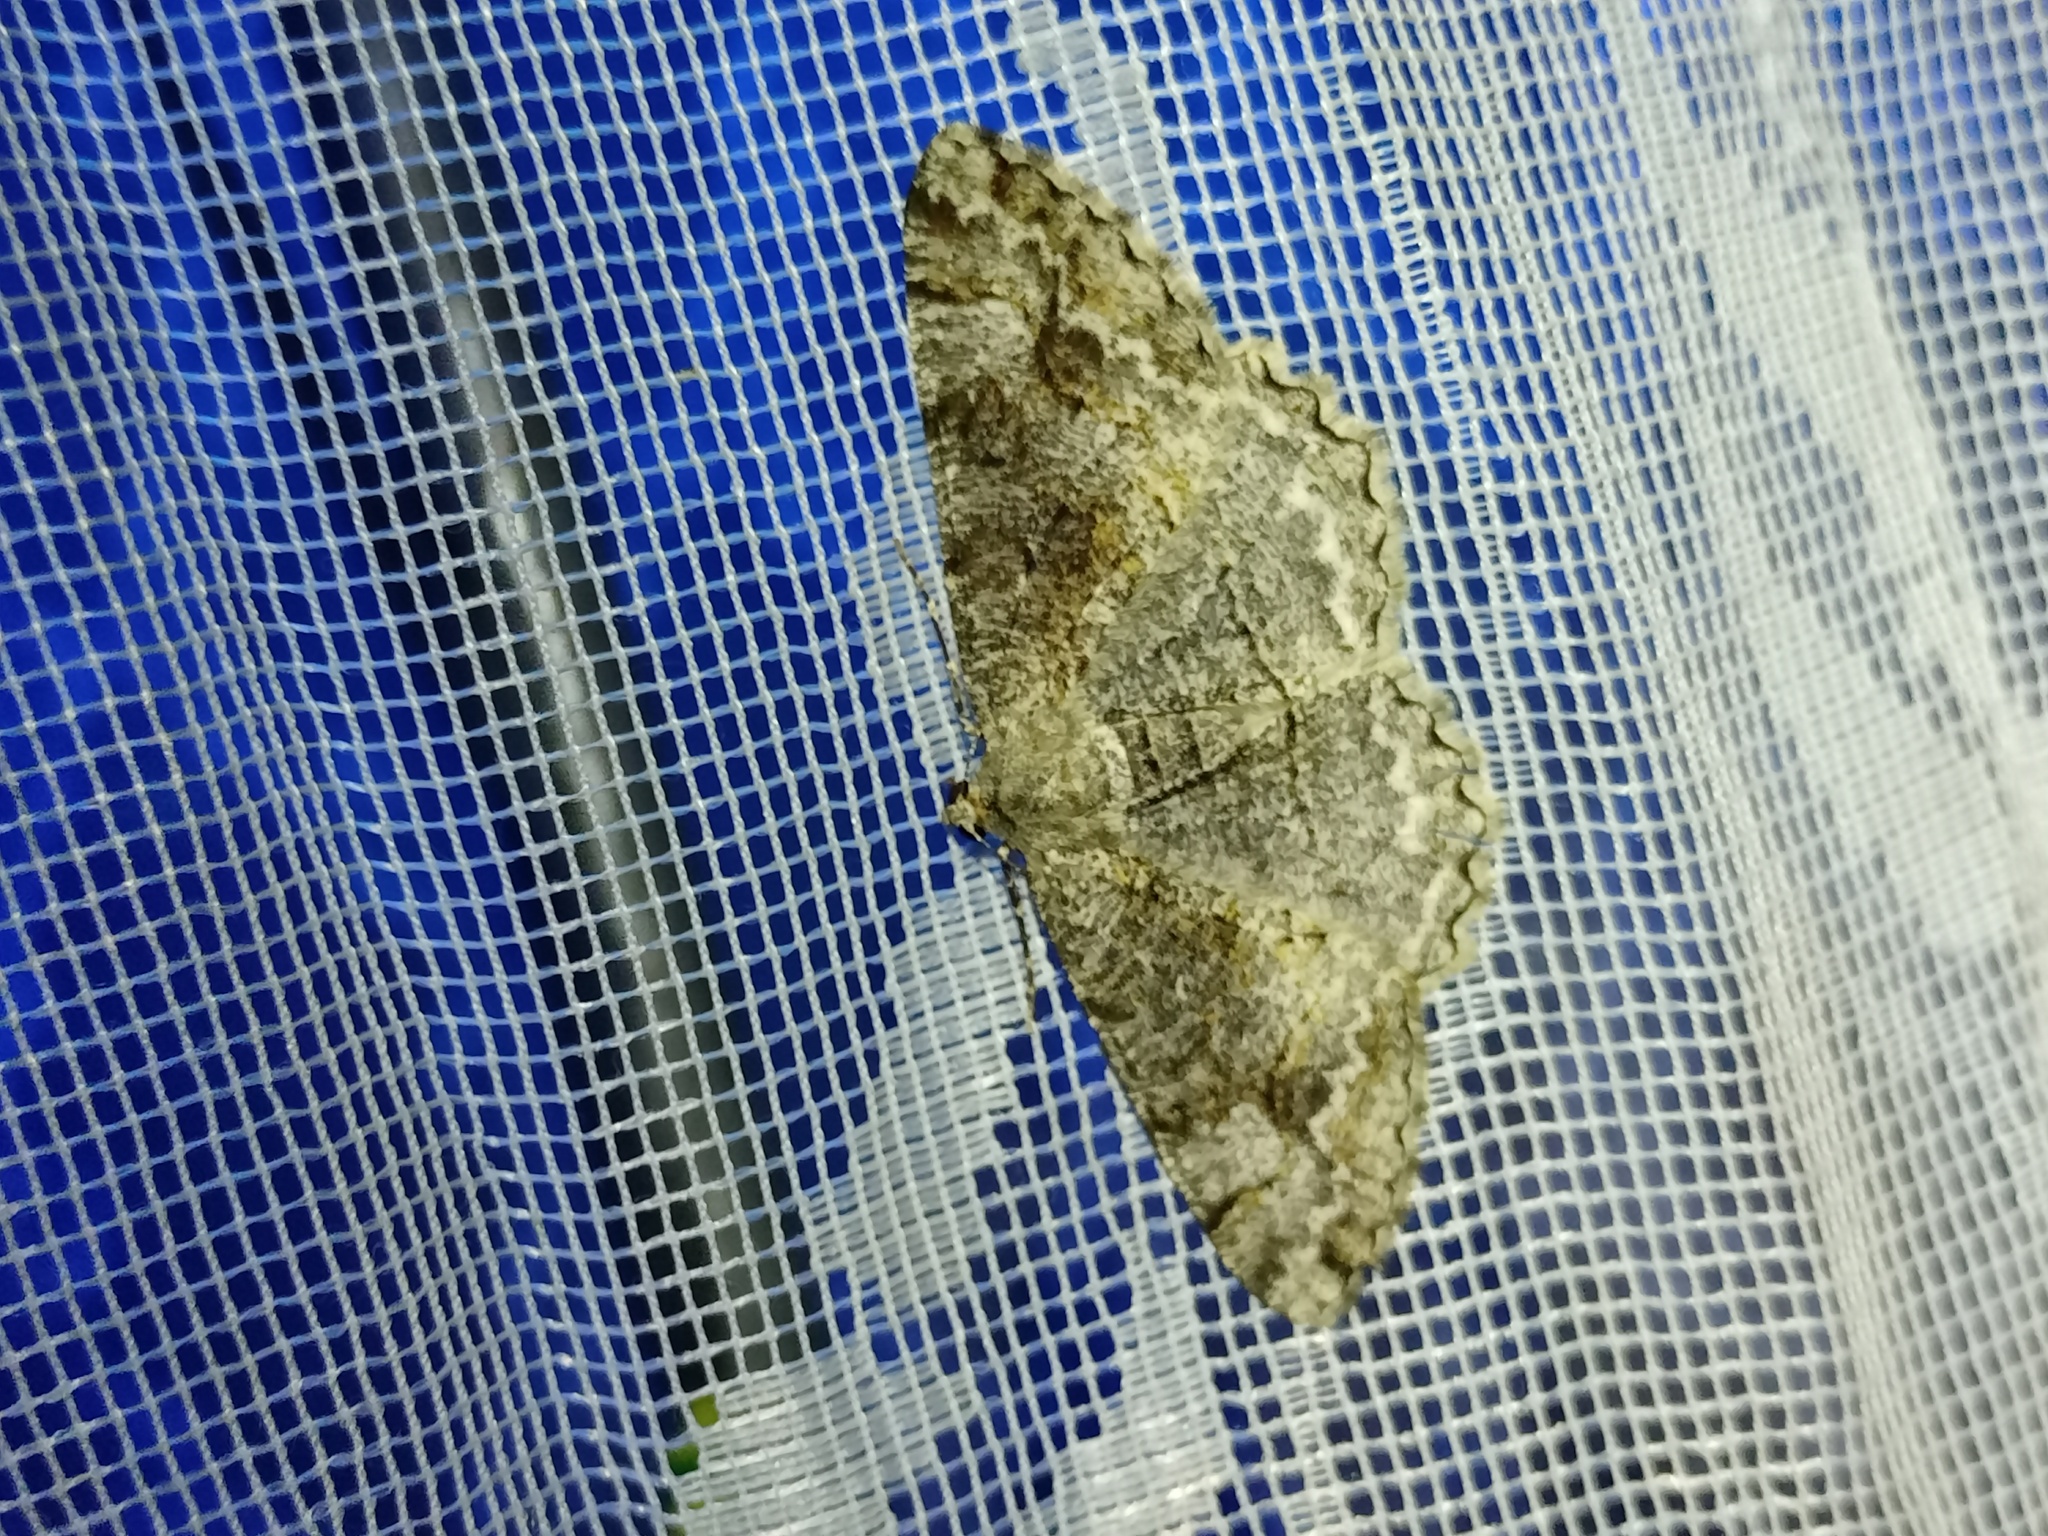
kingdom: Animalia
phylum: Arthropoda
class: Insecta
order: Lepidoptera
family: Geometridae
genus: Alcis
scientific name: Alcis repandata
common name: Mottled beauty
